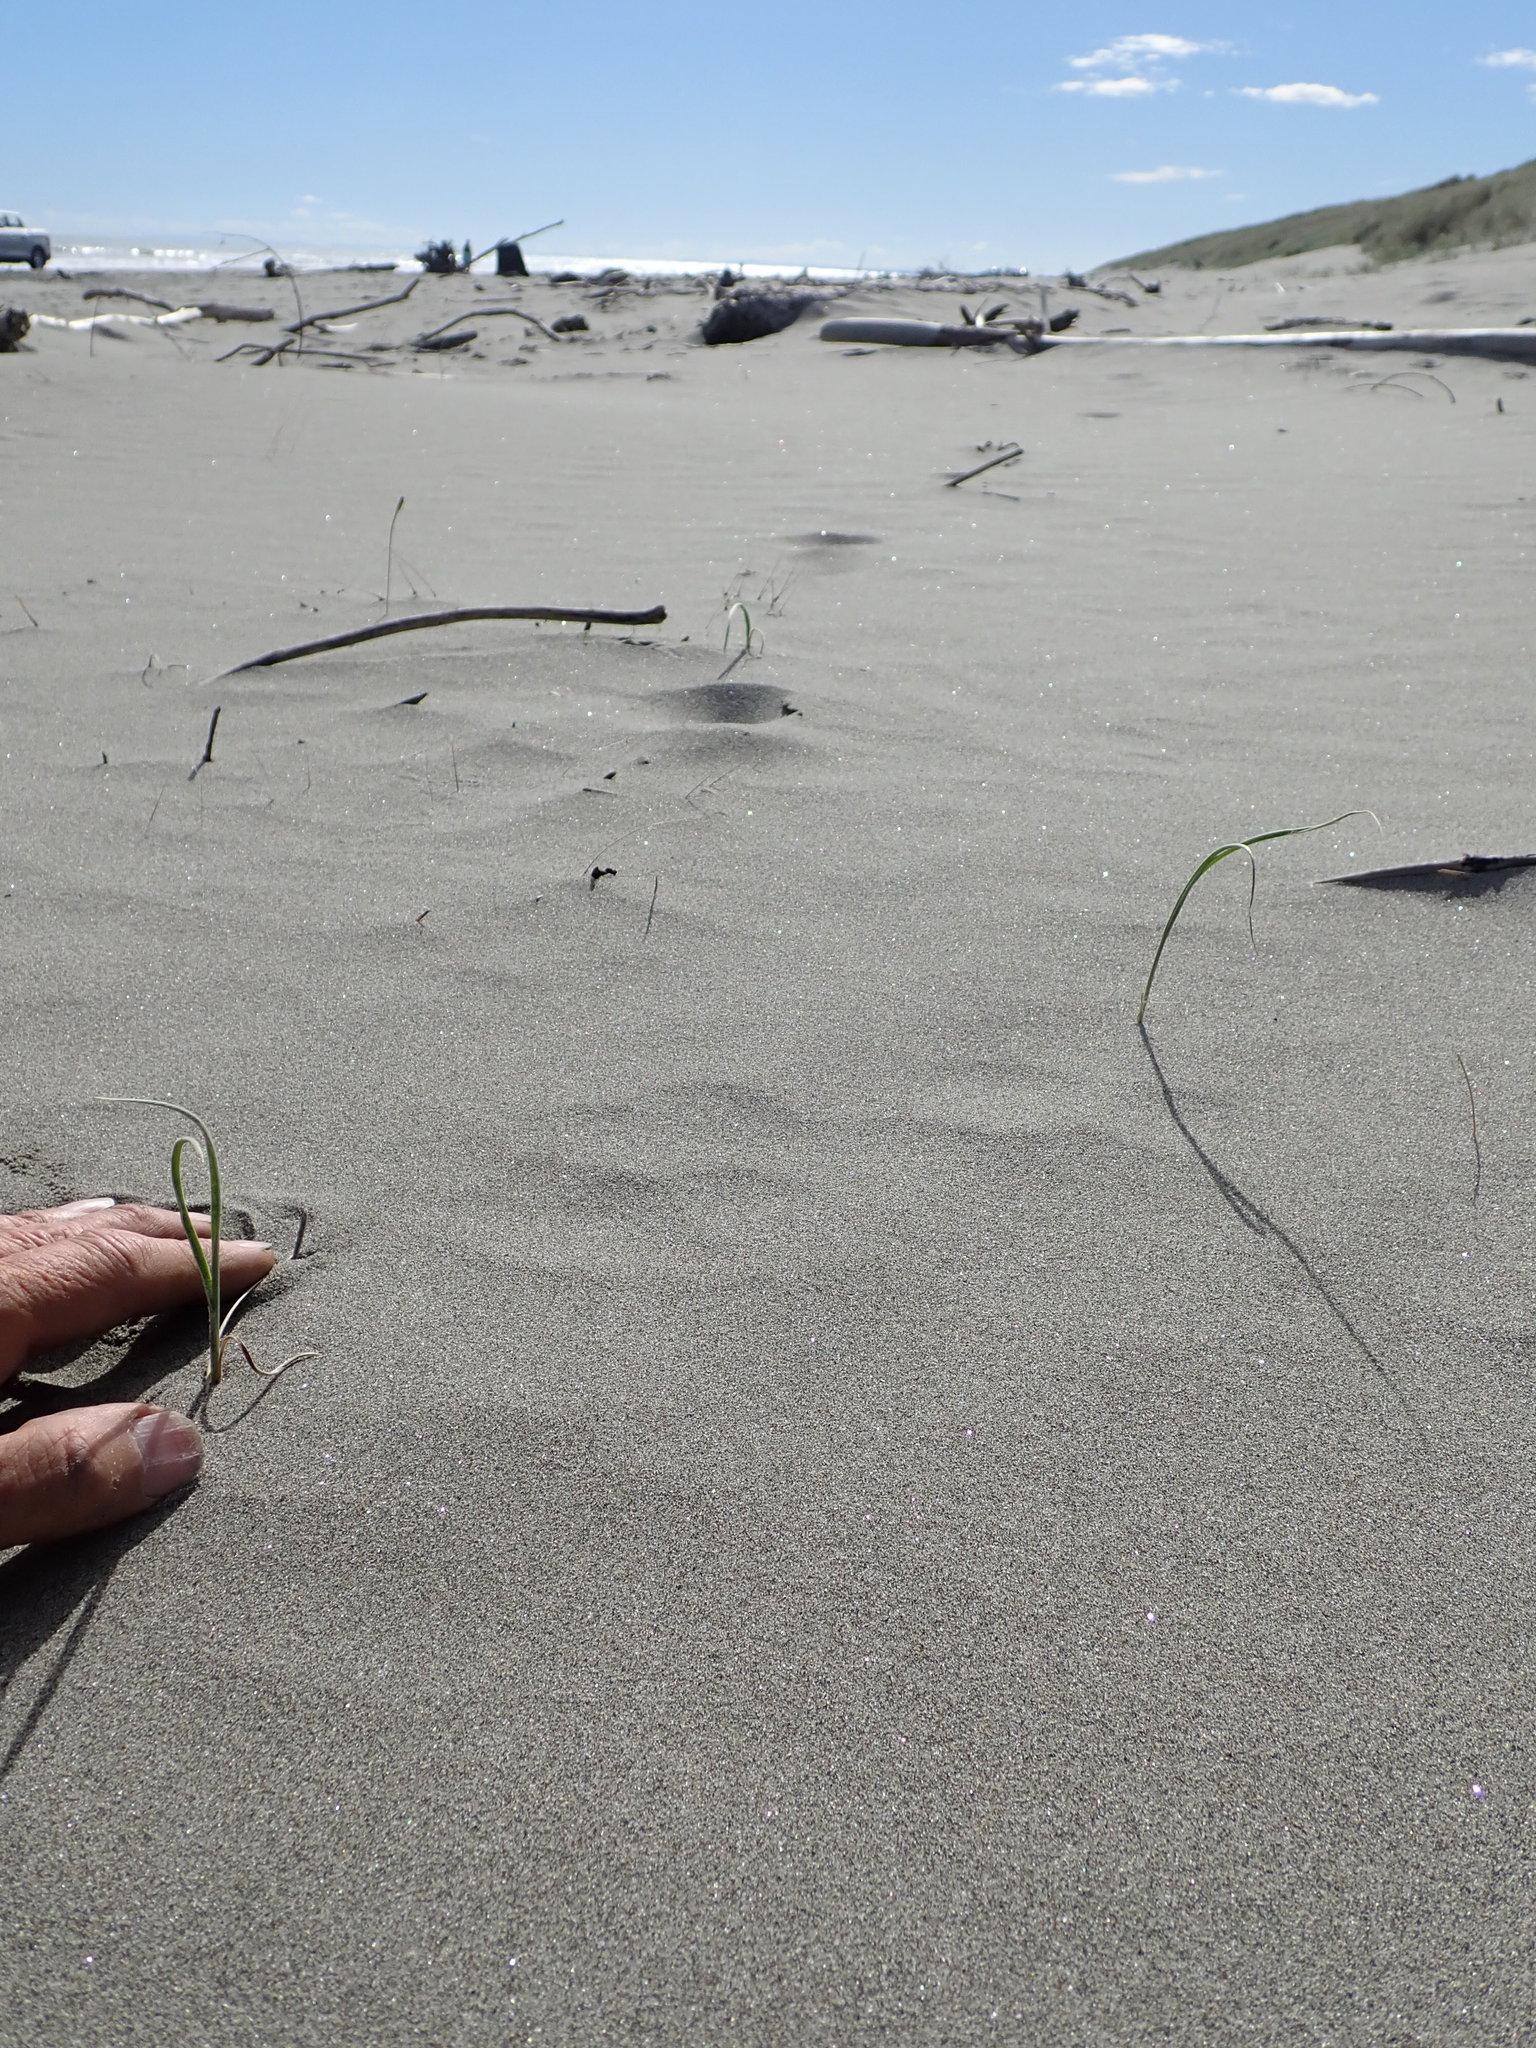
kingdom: Plantae
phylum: Tracheophyta
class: Liliopsida
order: Poales
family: Poaceae
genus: Spinifex
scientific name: Spinifex sericeus
